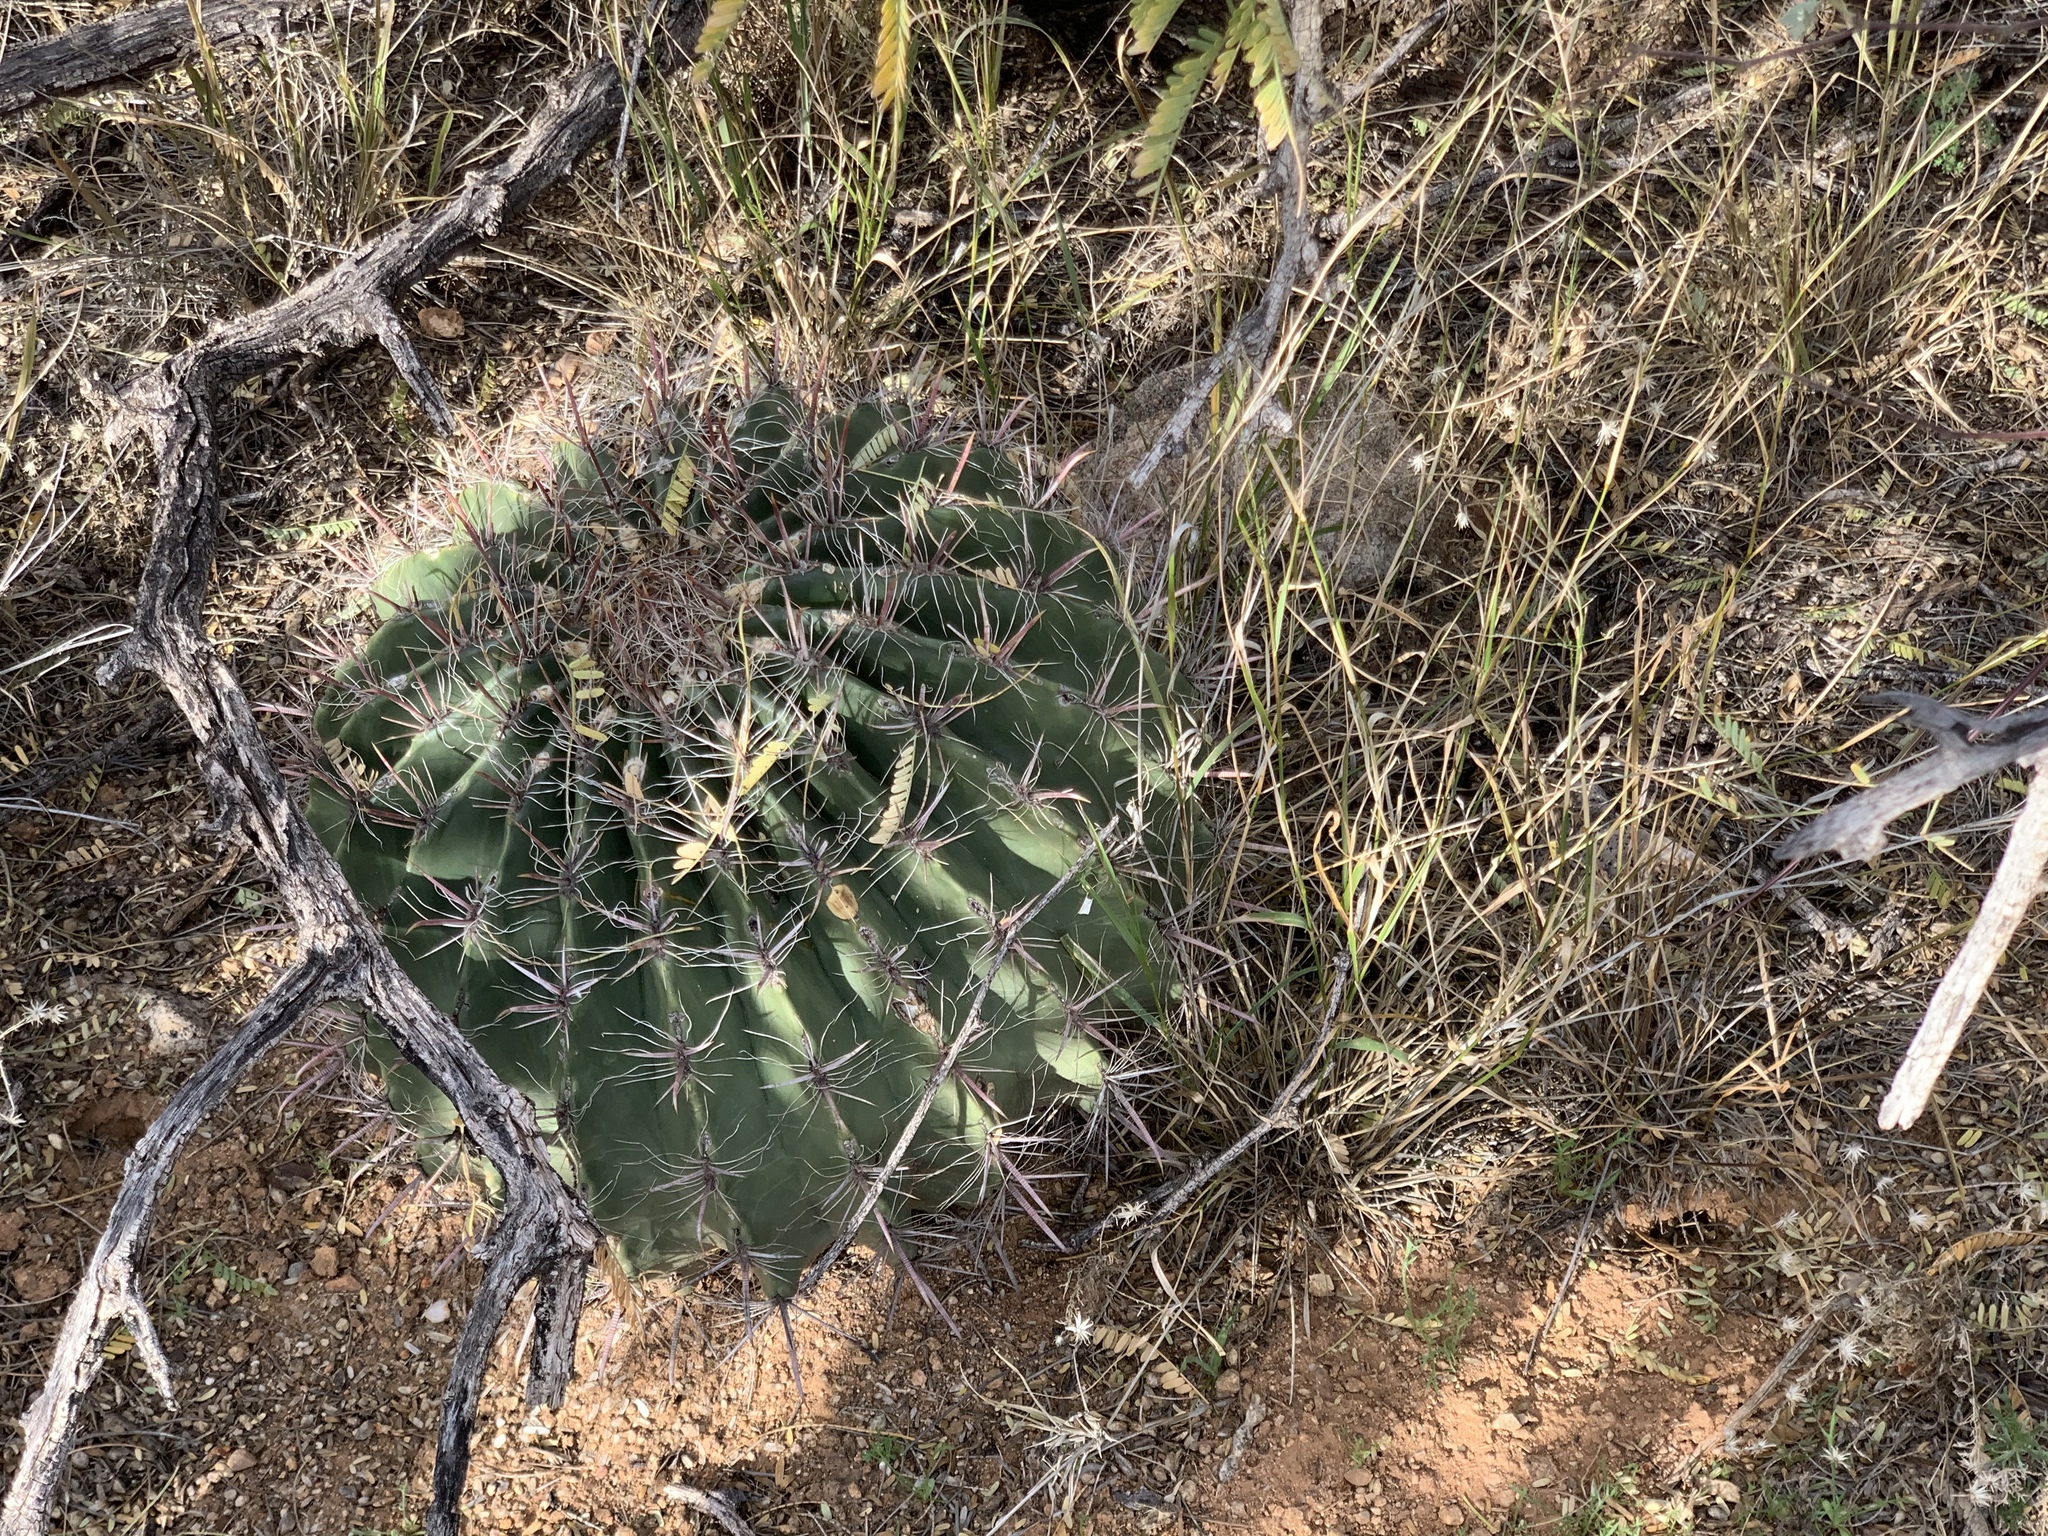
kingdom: Plantae
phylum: Tracheophyta
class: Magnoliopsida
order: Caryophyllales
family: Cactaceae
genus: Ferocactus
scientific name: Ferocactus wislizeni
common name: Candy barrel cactus
